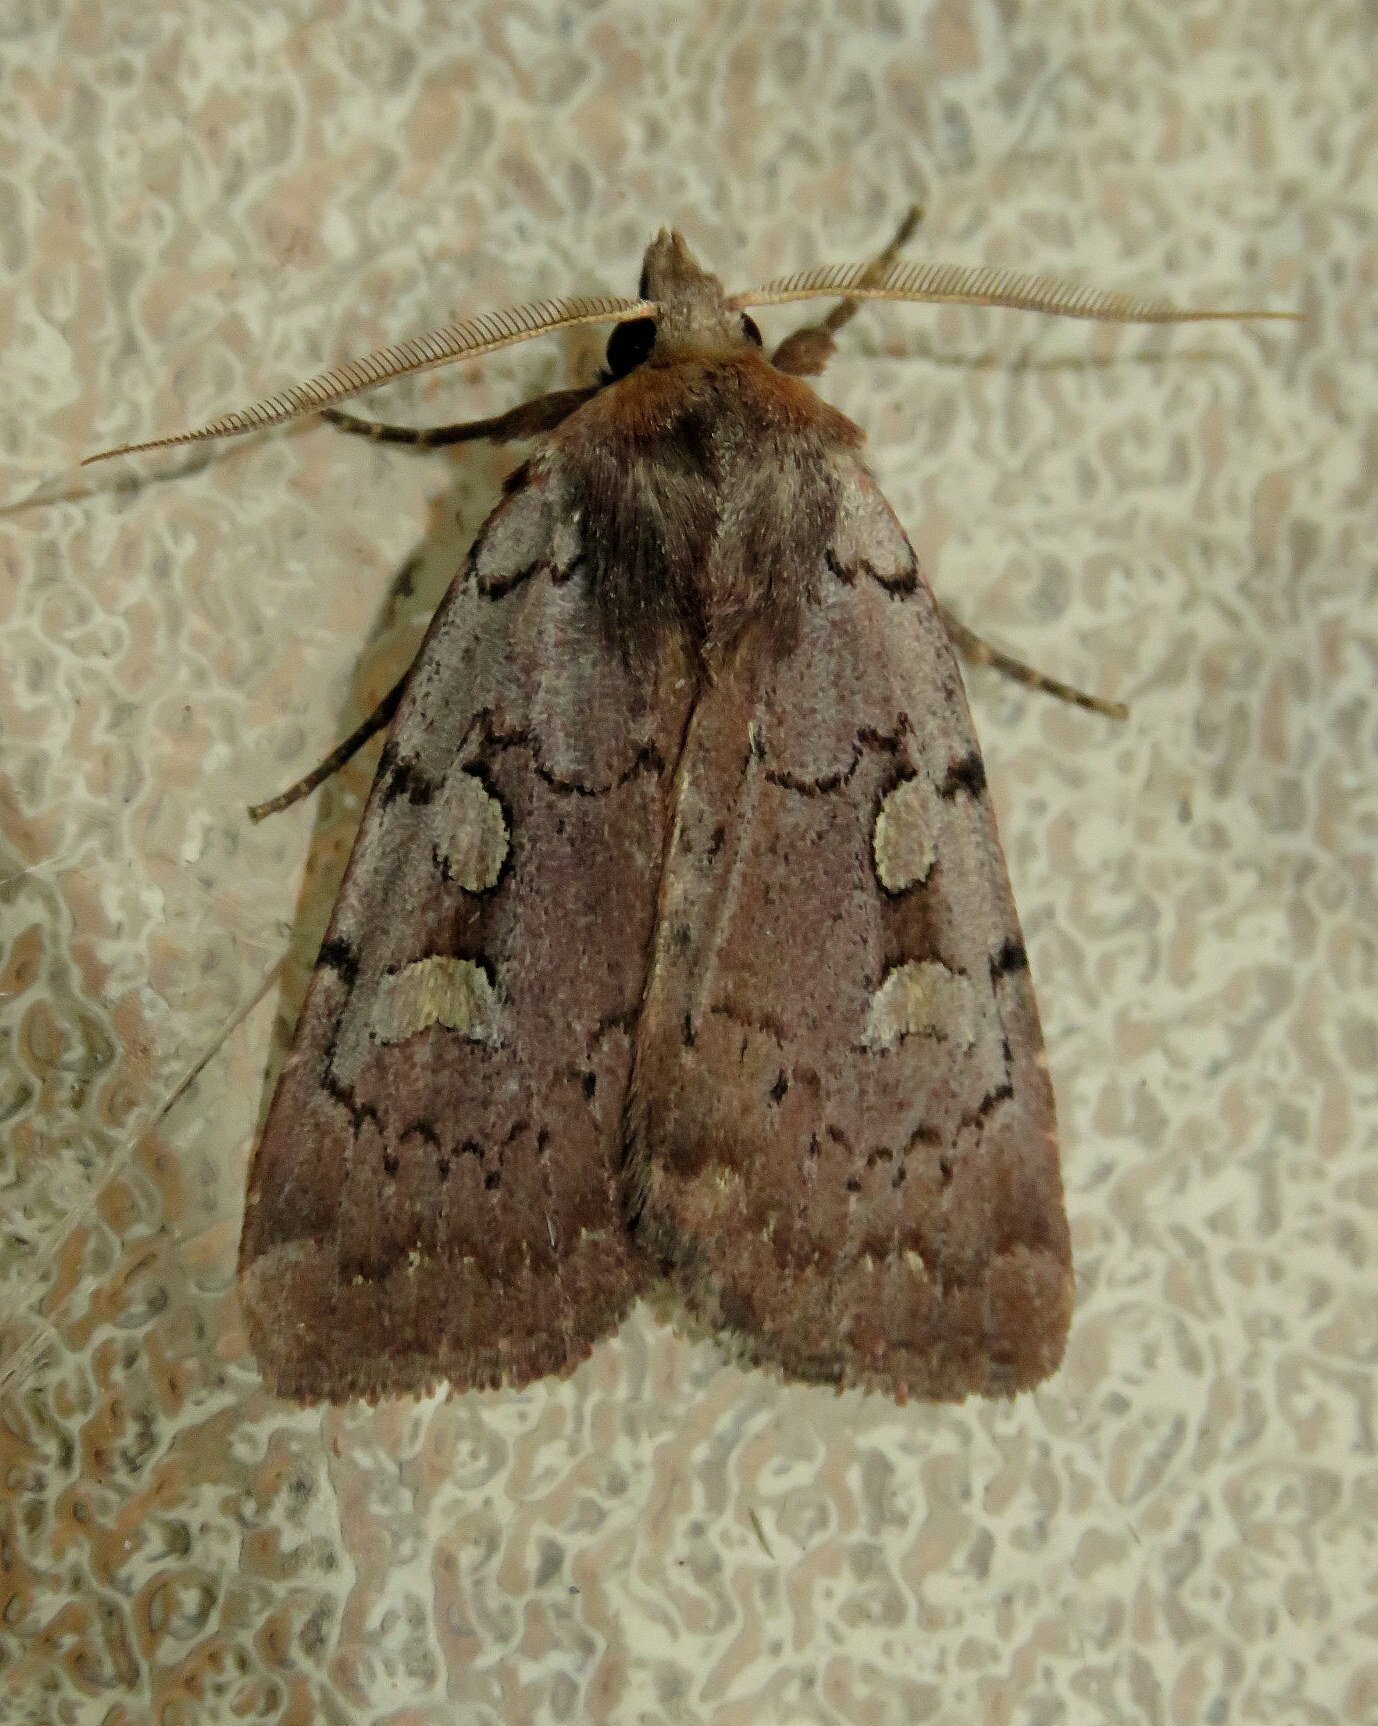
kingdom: Animalia
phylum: Arthropoda
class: Insecta
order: Lepidoptera
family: Noctuidae
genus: Xestia
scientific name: Xestia dilucida
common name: Dull reddish dart
